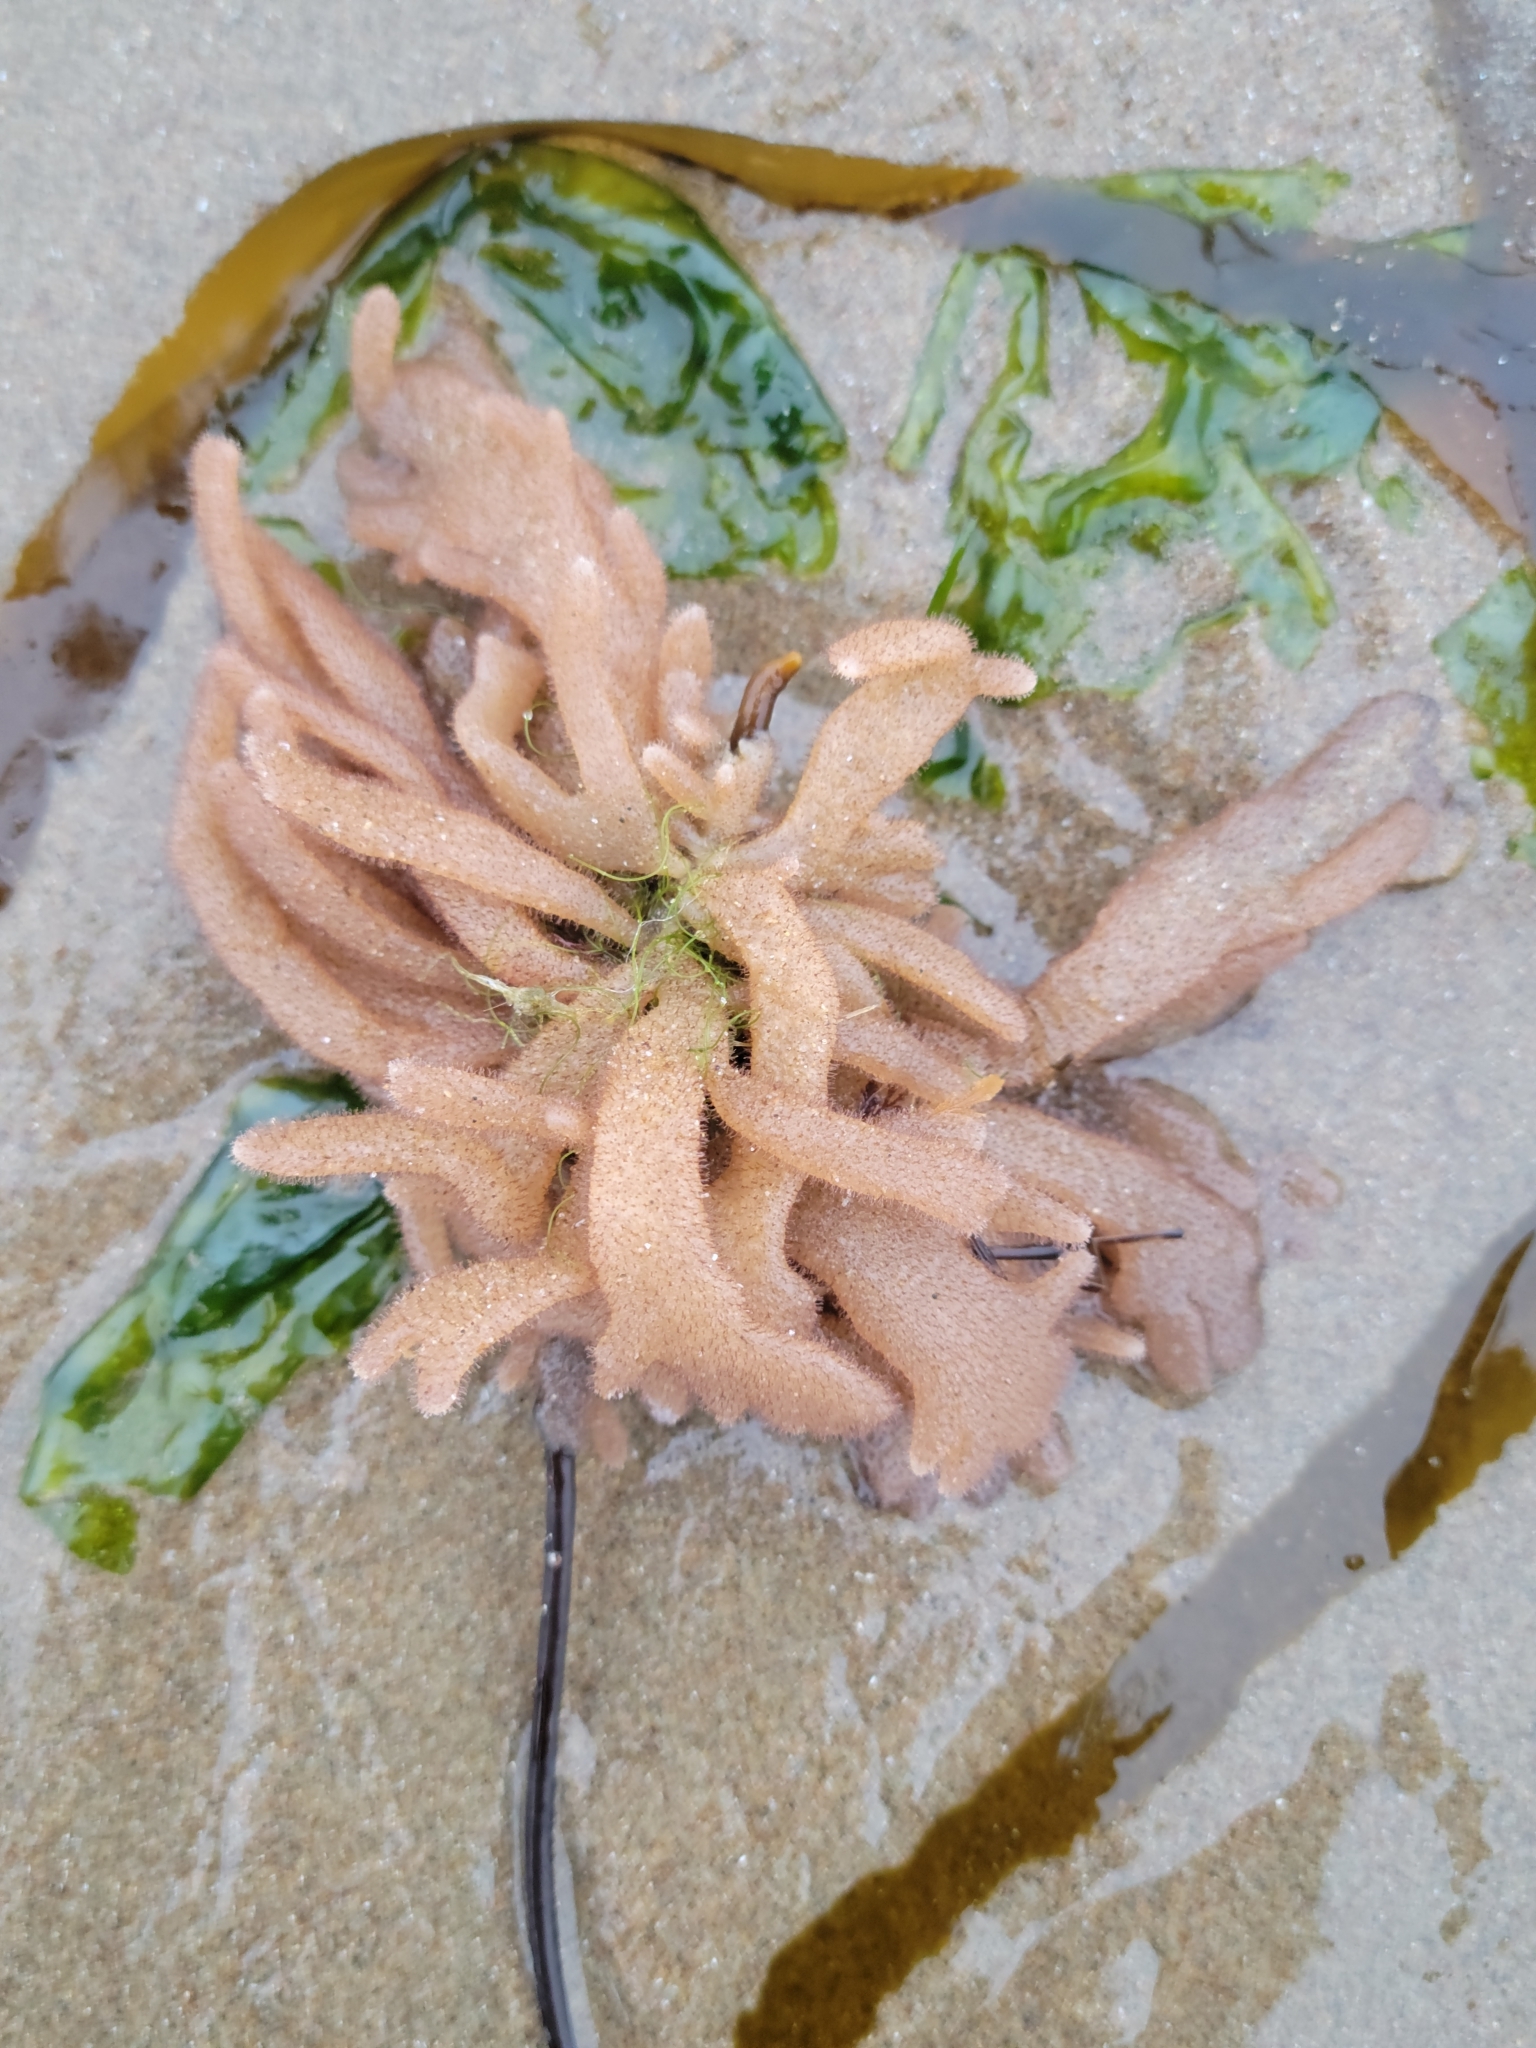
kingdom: Animalia
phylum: Bryozoa
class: Gymnolaemata
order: Ctenostomatida
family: Flustrellidridae
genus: Flustrellidra
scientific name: Flustrellidra corniculata
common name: Spiny leather bryozoan
